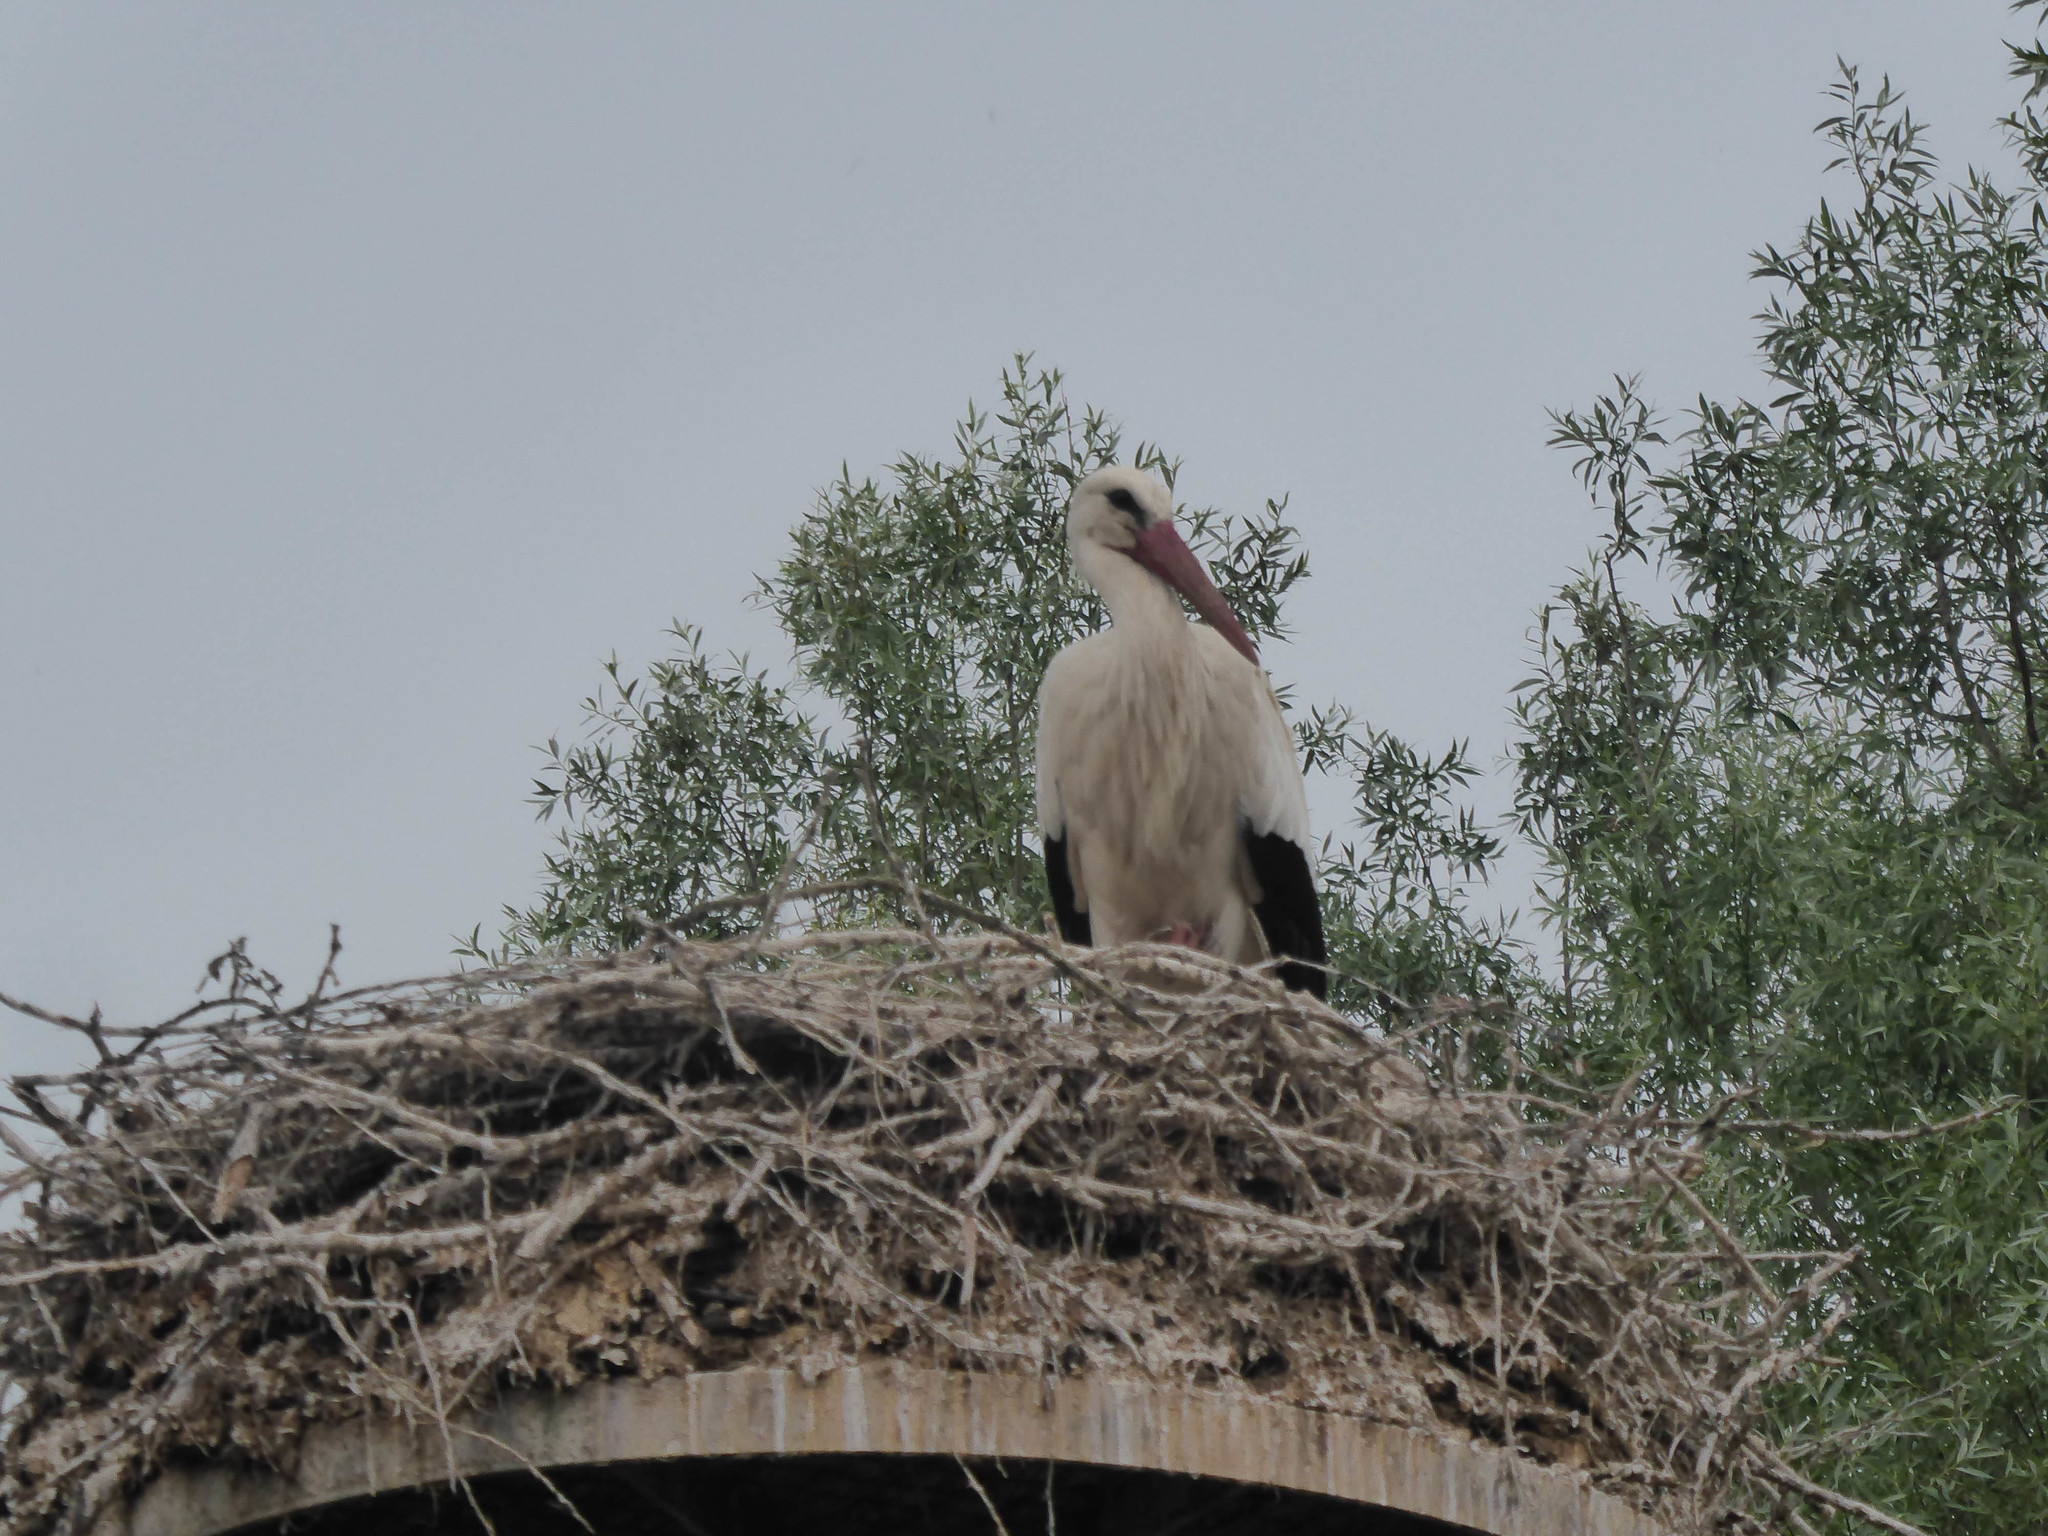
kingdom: Animalia
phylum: Chordata
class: Aves
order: Ciconiiformes
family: Ciconiidae
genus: Ciconia
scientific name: Ciconia ciconia
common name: White stork
